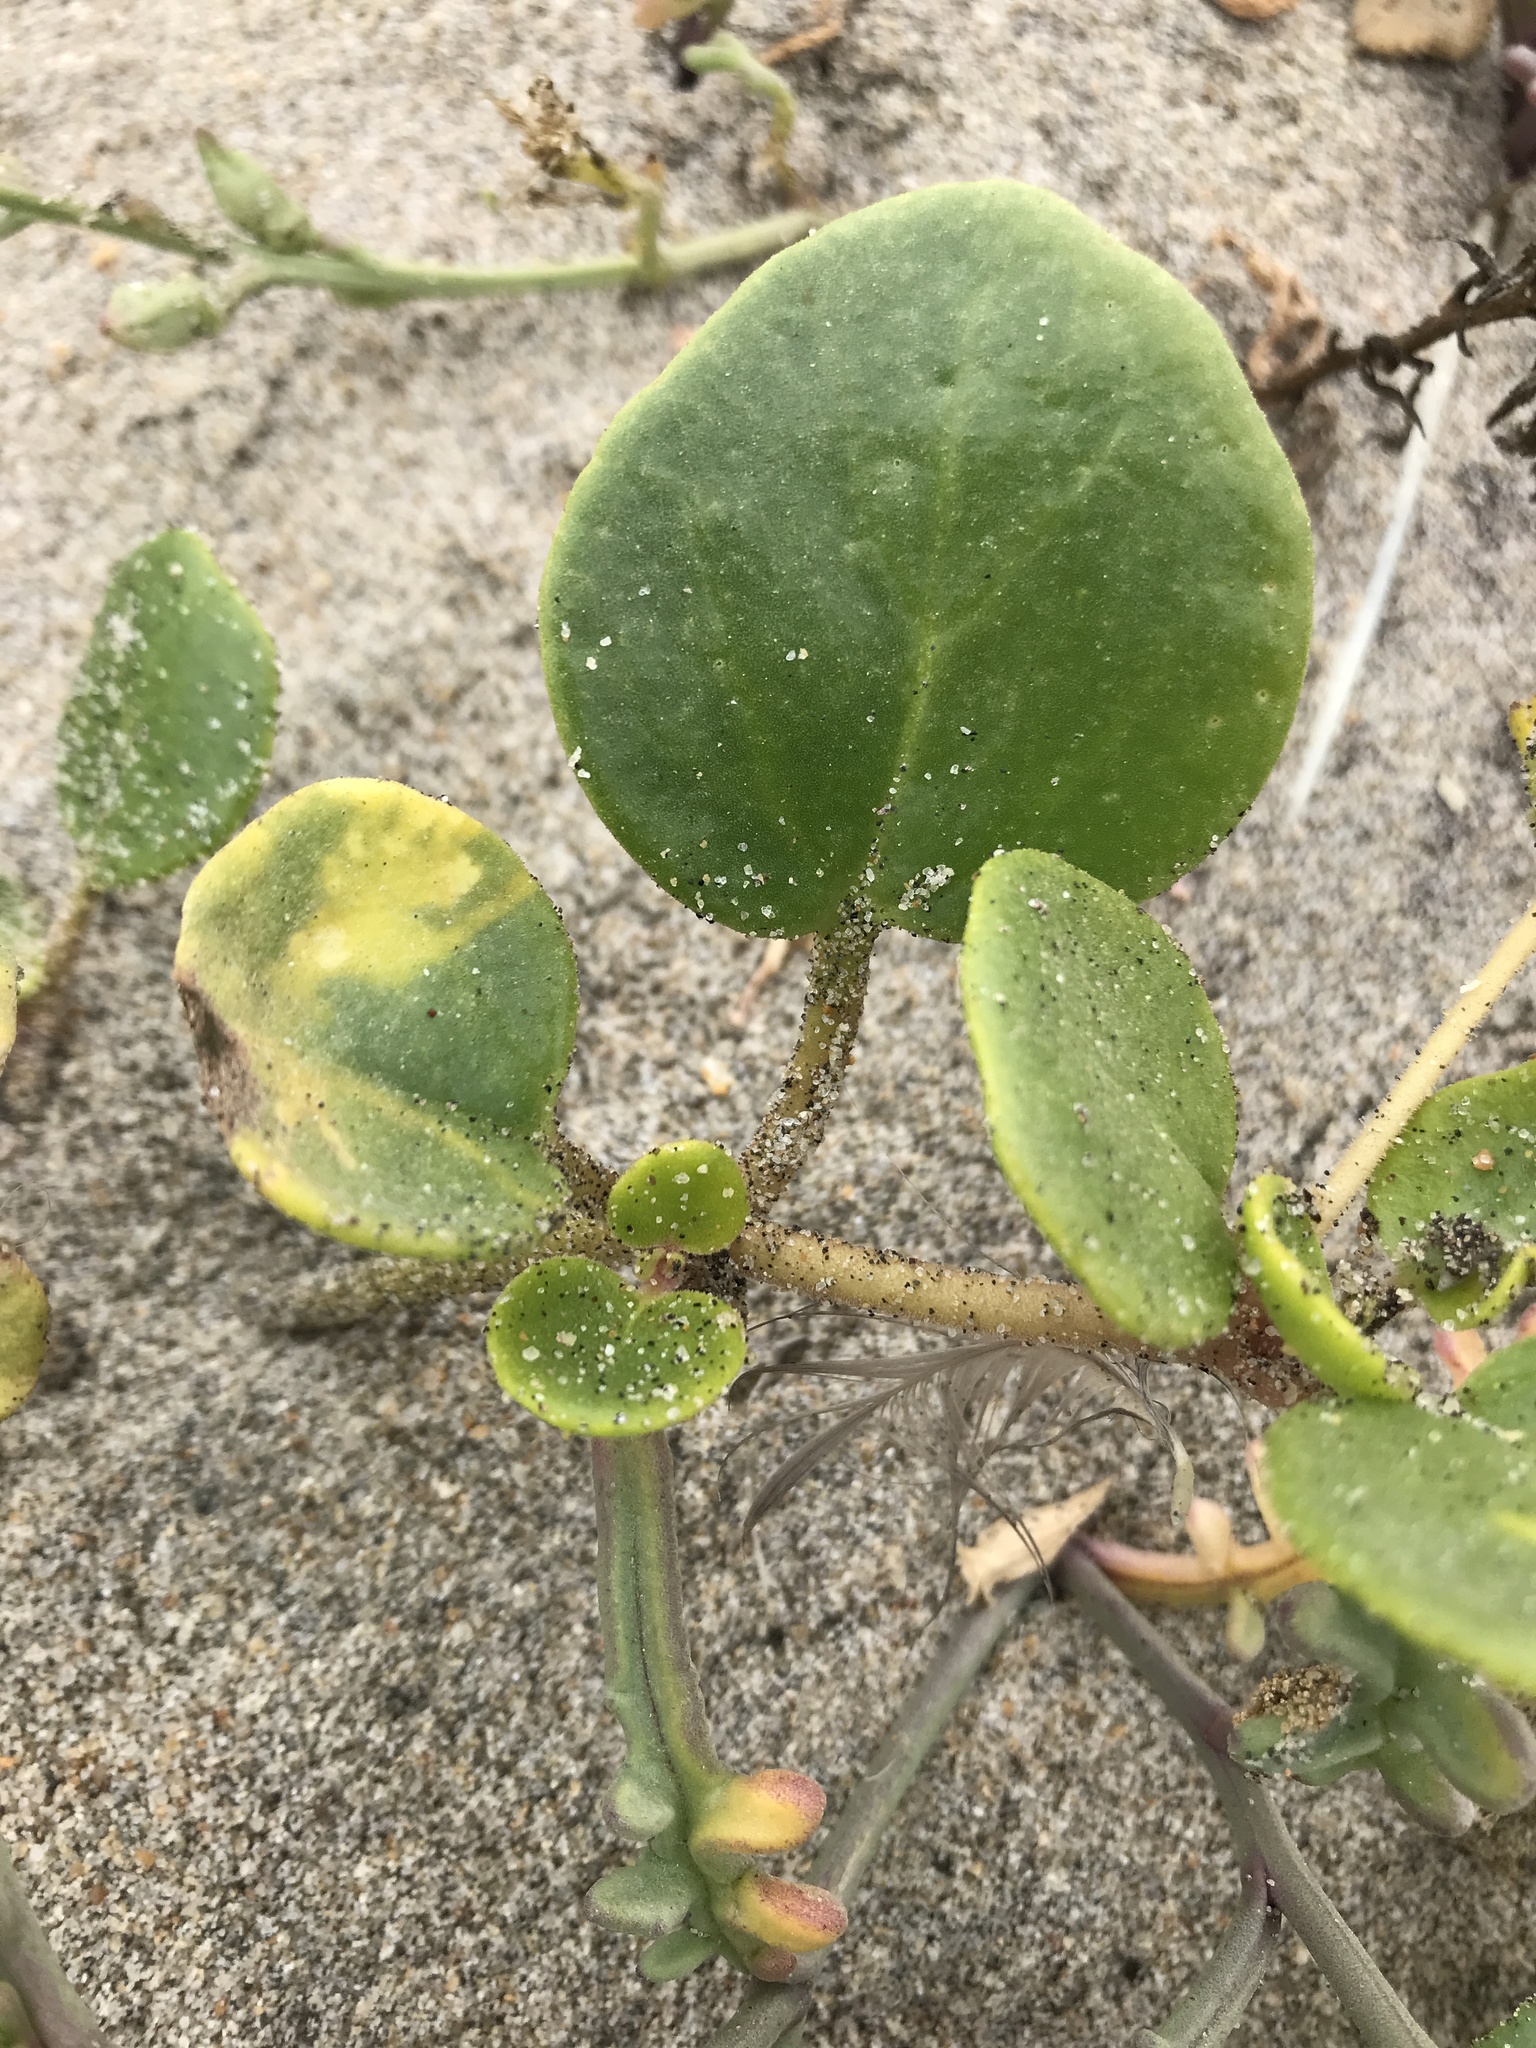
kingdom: Plantae
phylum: Tracheophyta
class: Magnoliopsida
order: Caryophyllales
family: Nyctaginaceae
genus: Abronia
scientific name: Abronia latifolia
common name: Yellow sand-verbena
